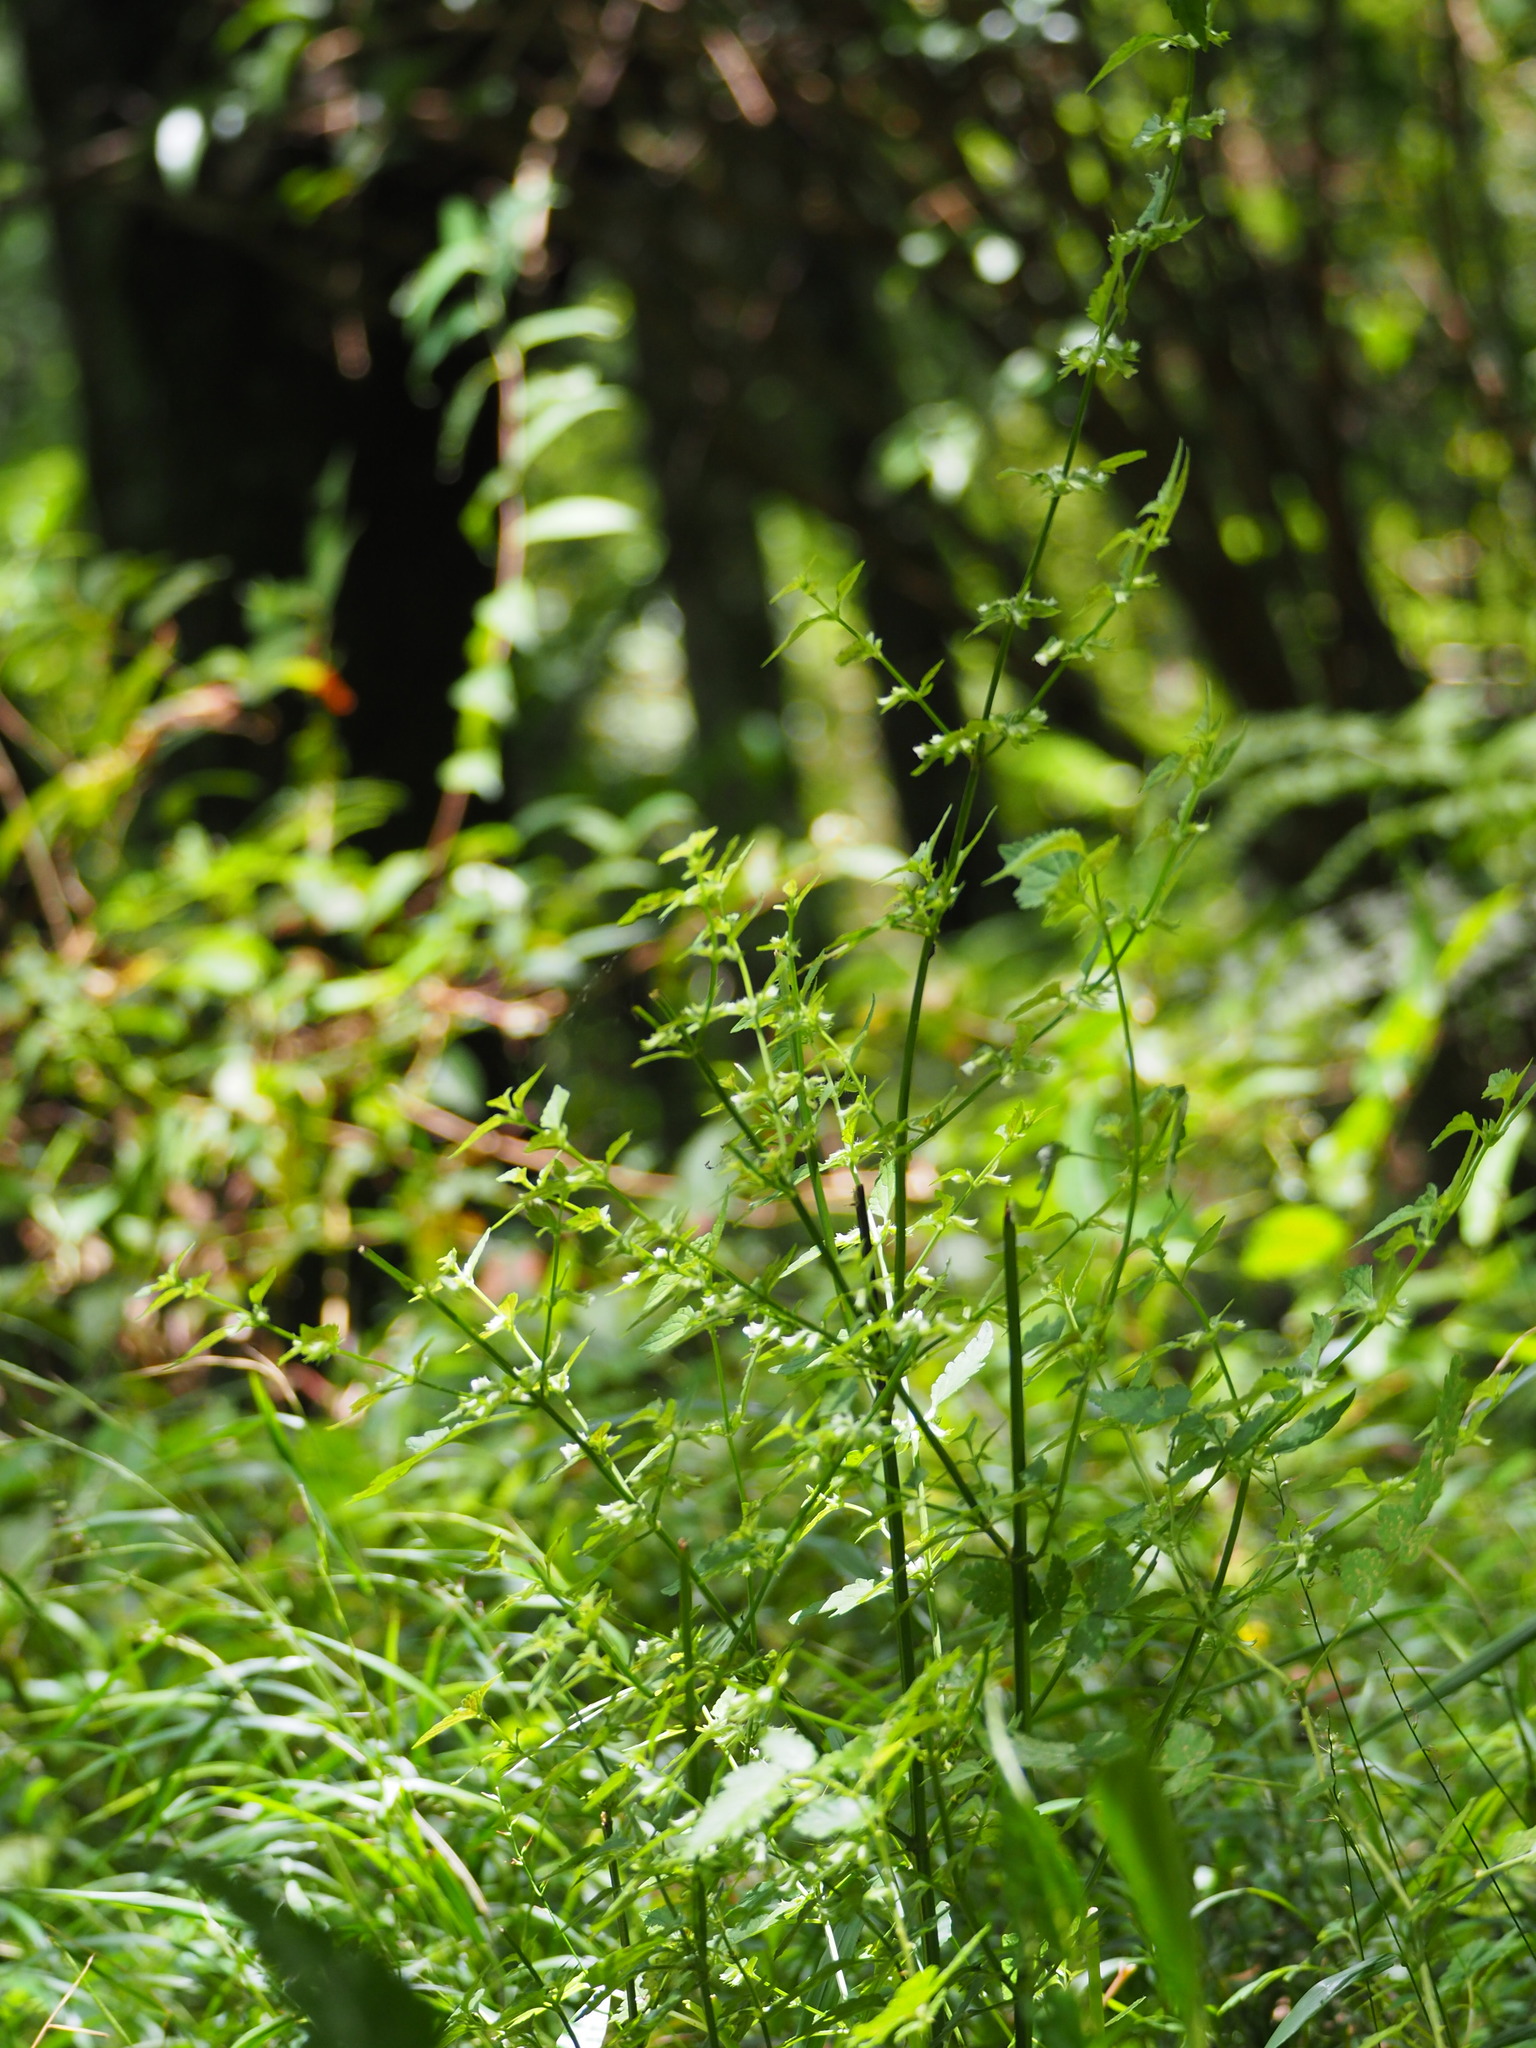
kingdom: Plantae
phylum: Tracheophyta
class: Magnoliopsida
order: Lamiales
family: Lamiaceae
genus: Melissa
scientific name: Melissa axillaris
